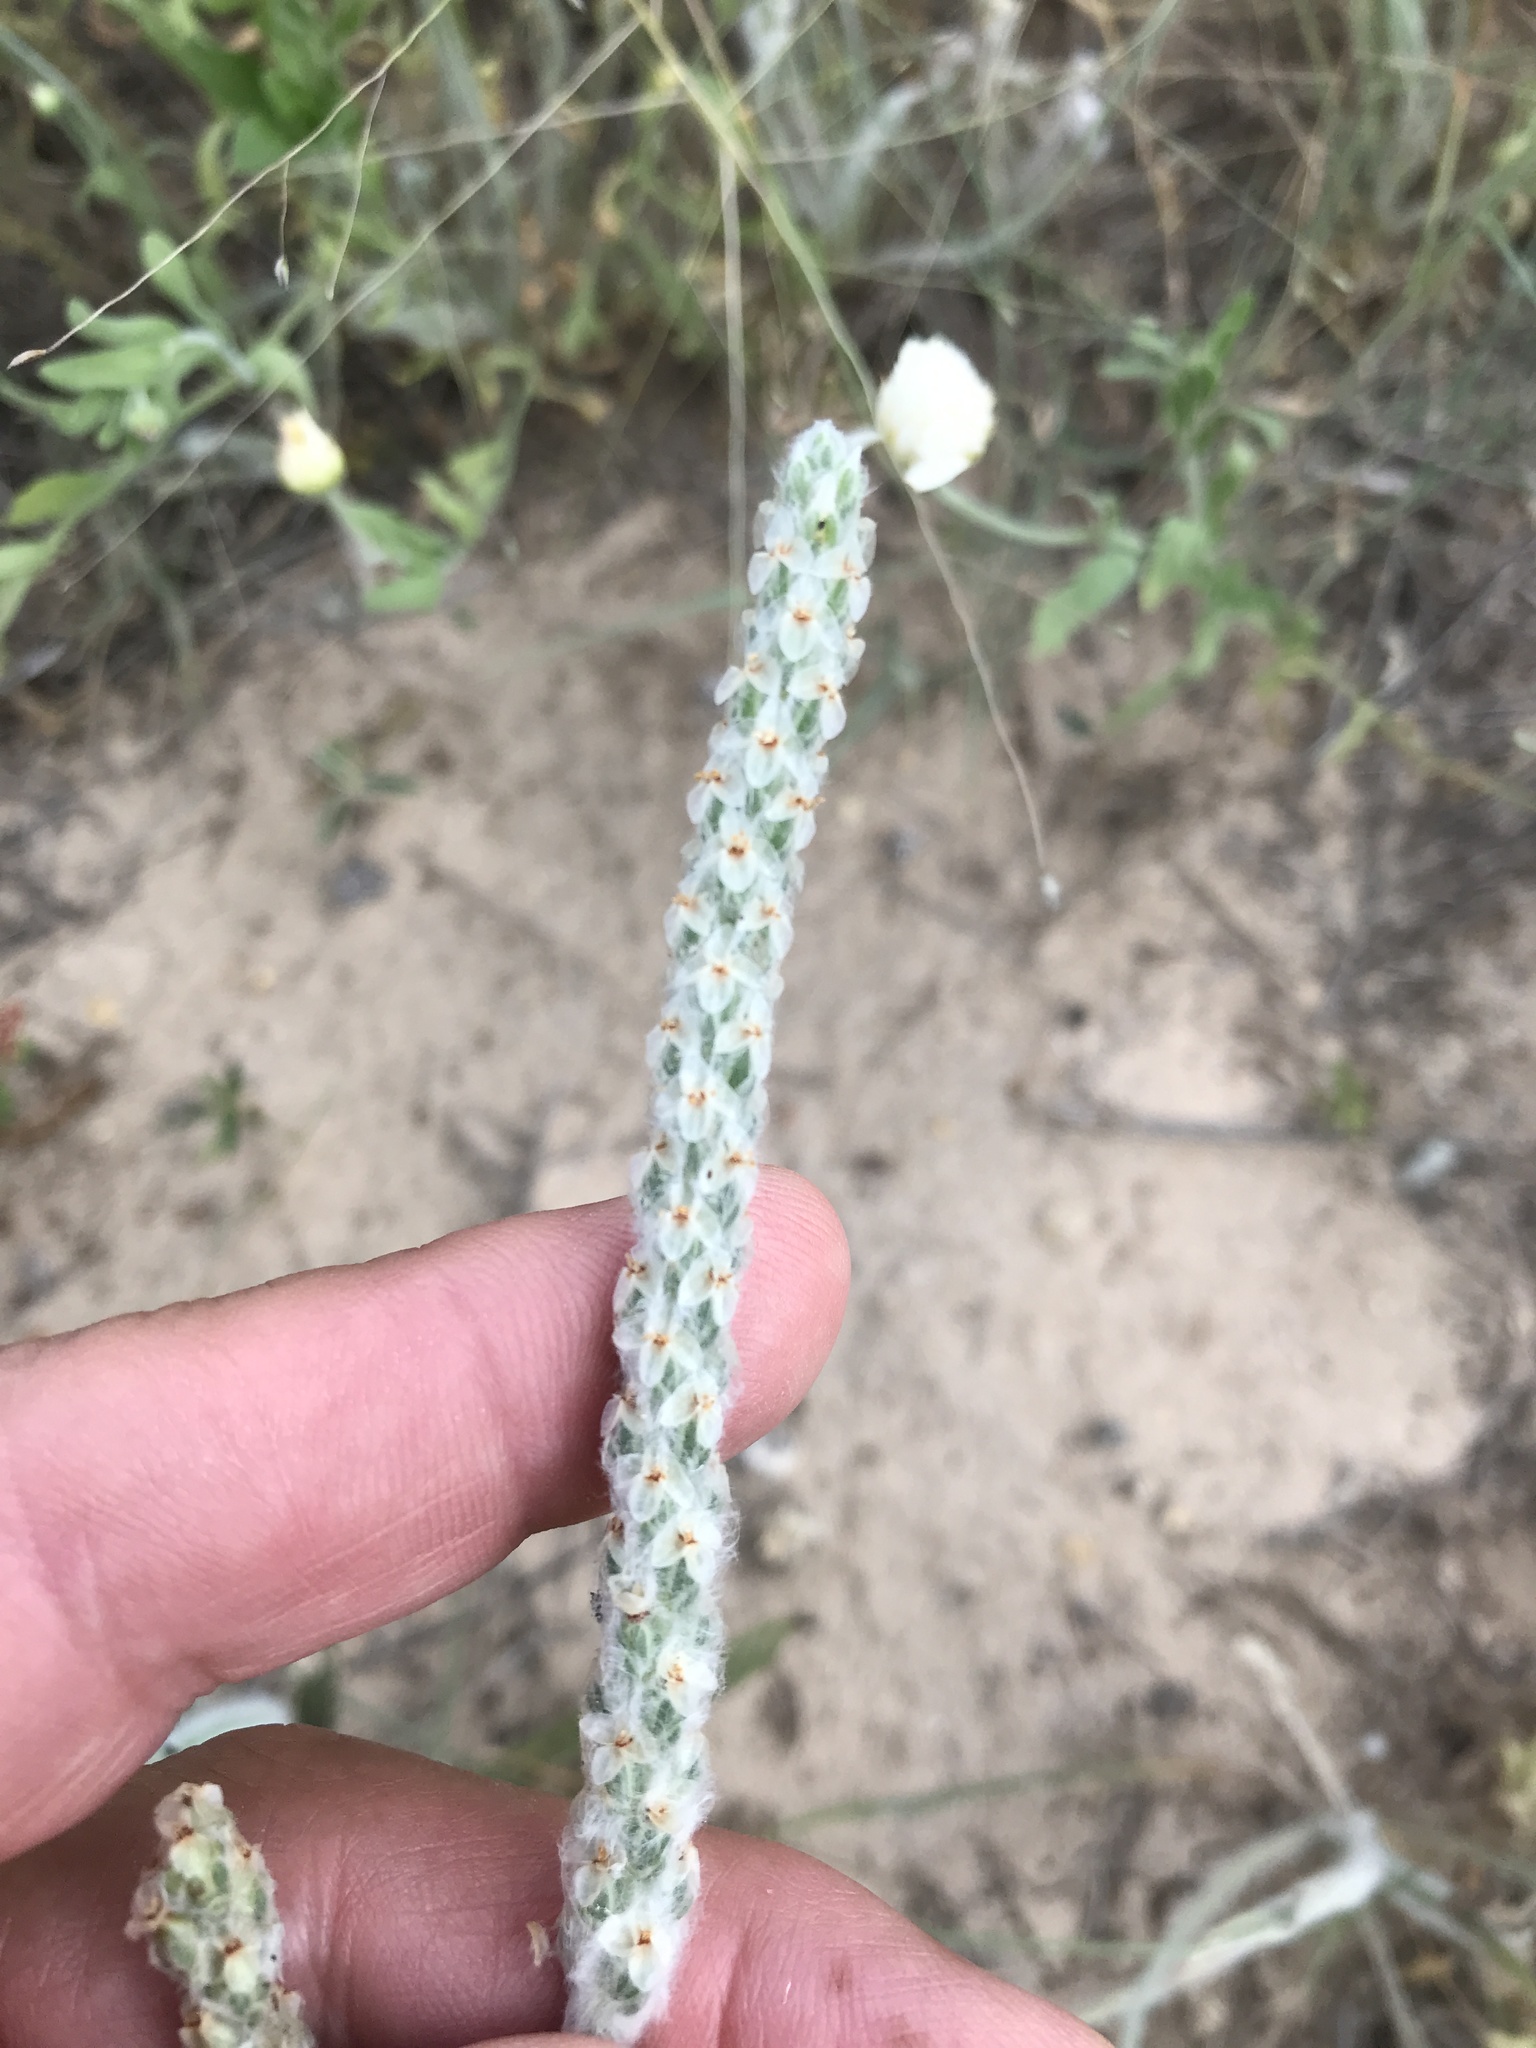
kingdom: Plantae
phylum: Tracheophyta
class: Magnoliopsida
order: Lamiales
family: Plantaginaceae
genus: Plantago
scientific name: Plantago helleri
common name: Heller's plantain
